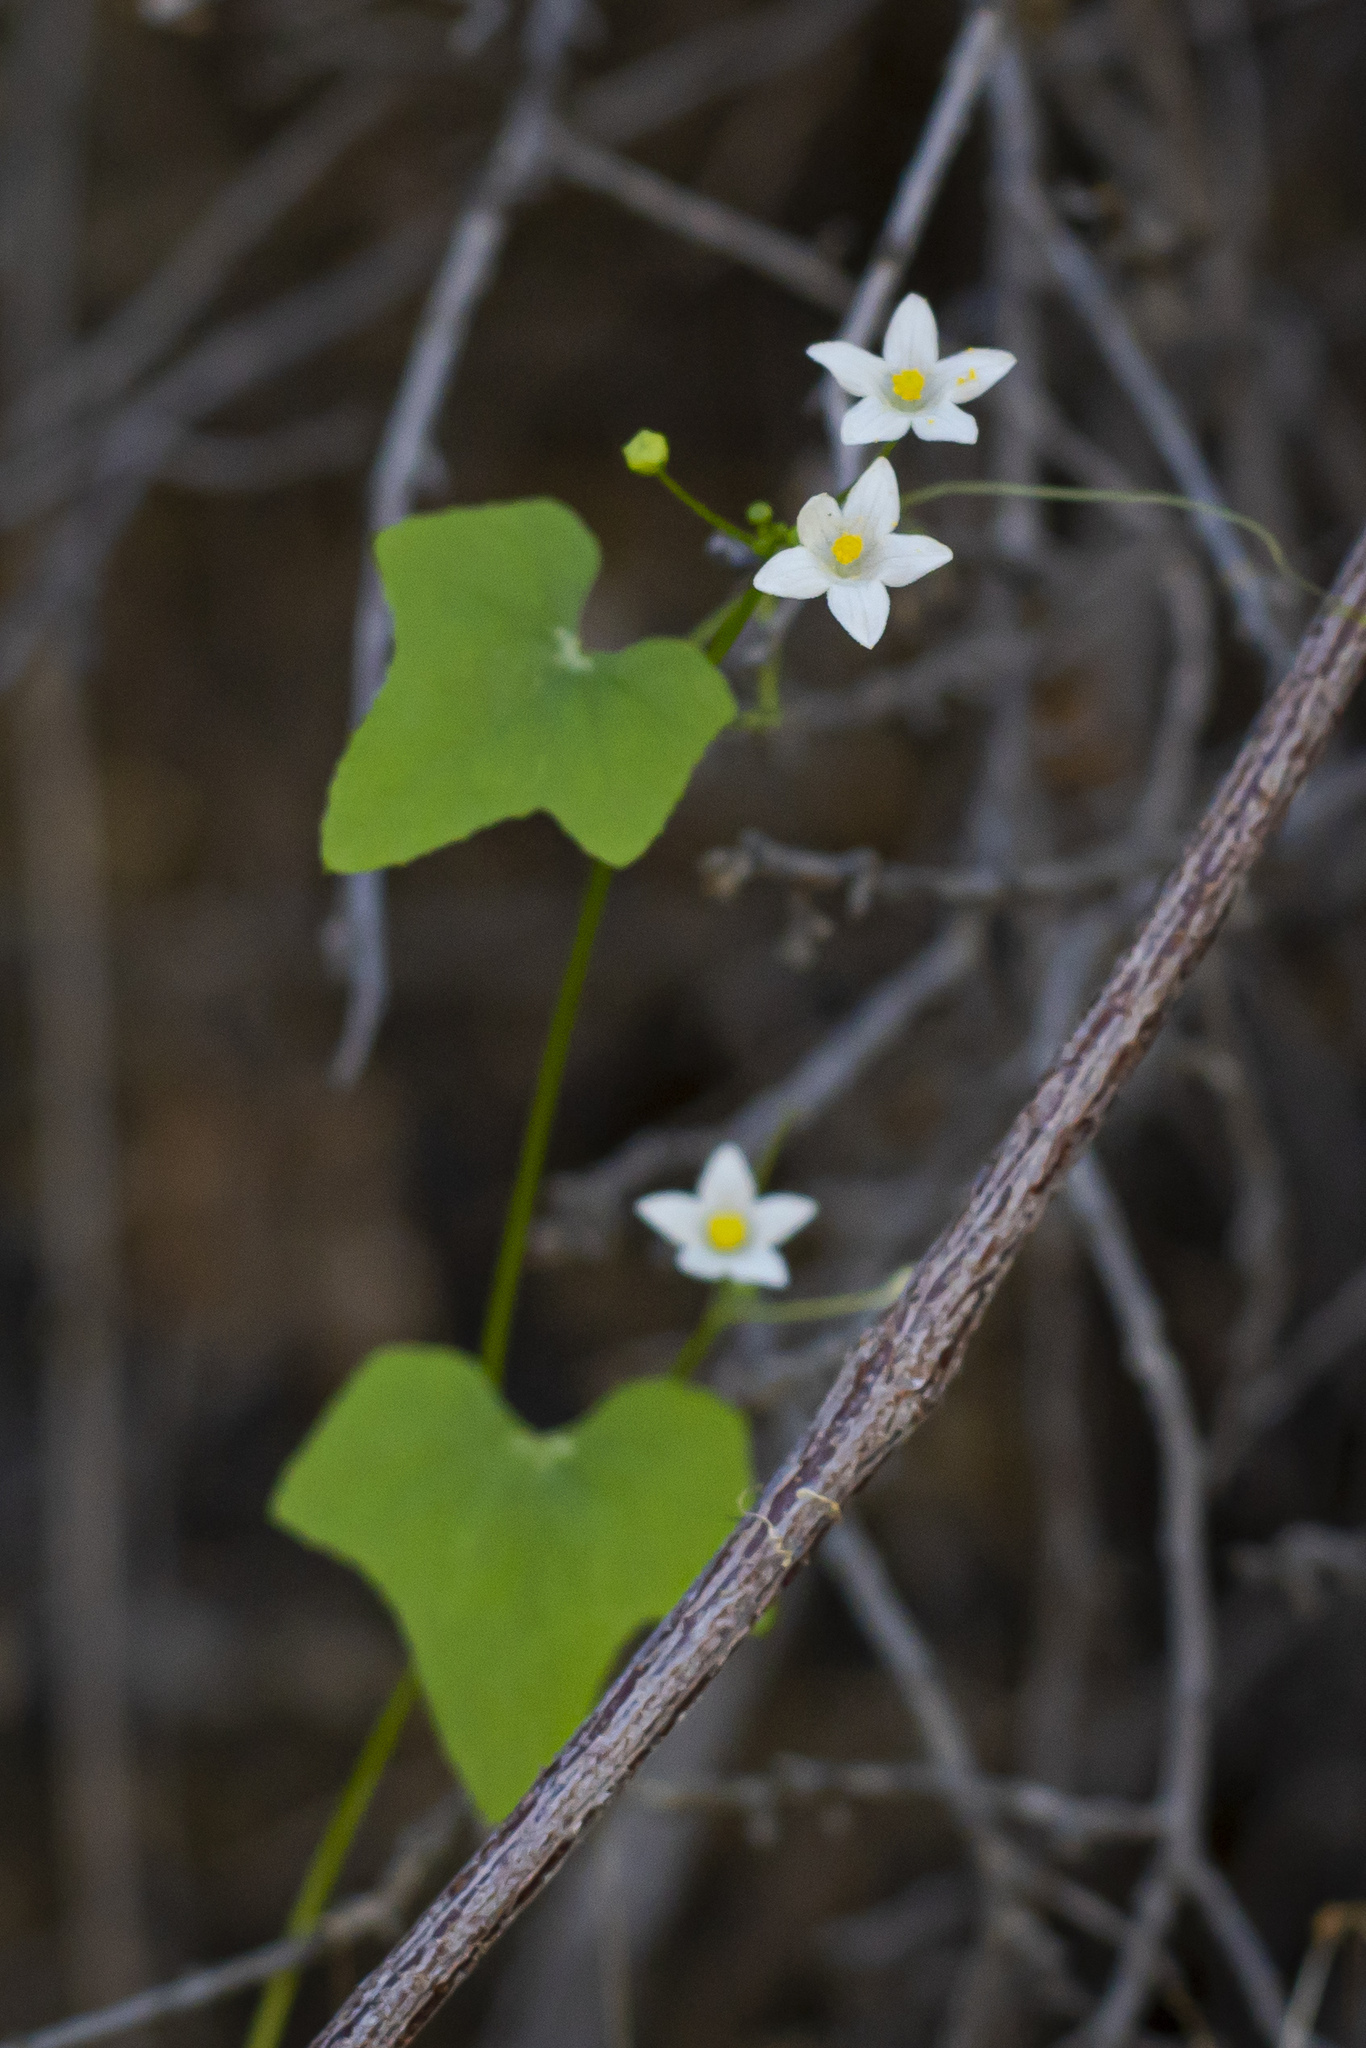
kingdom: Plantae
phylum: Tracheophyta
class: Magnoliopsida
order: Cucurbitales
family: Cucurbitaceae
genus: Echinopepon
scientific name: Echinopepon minimus
